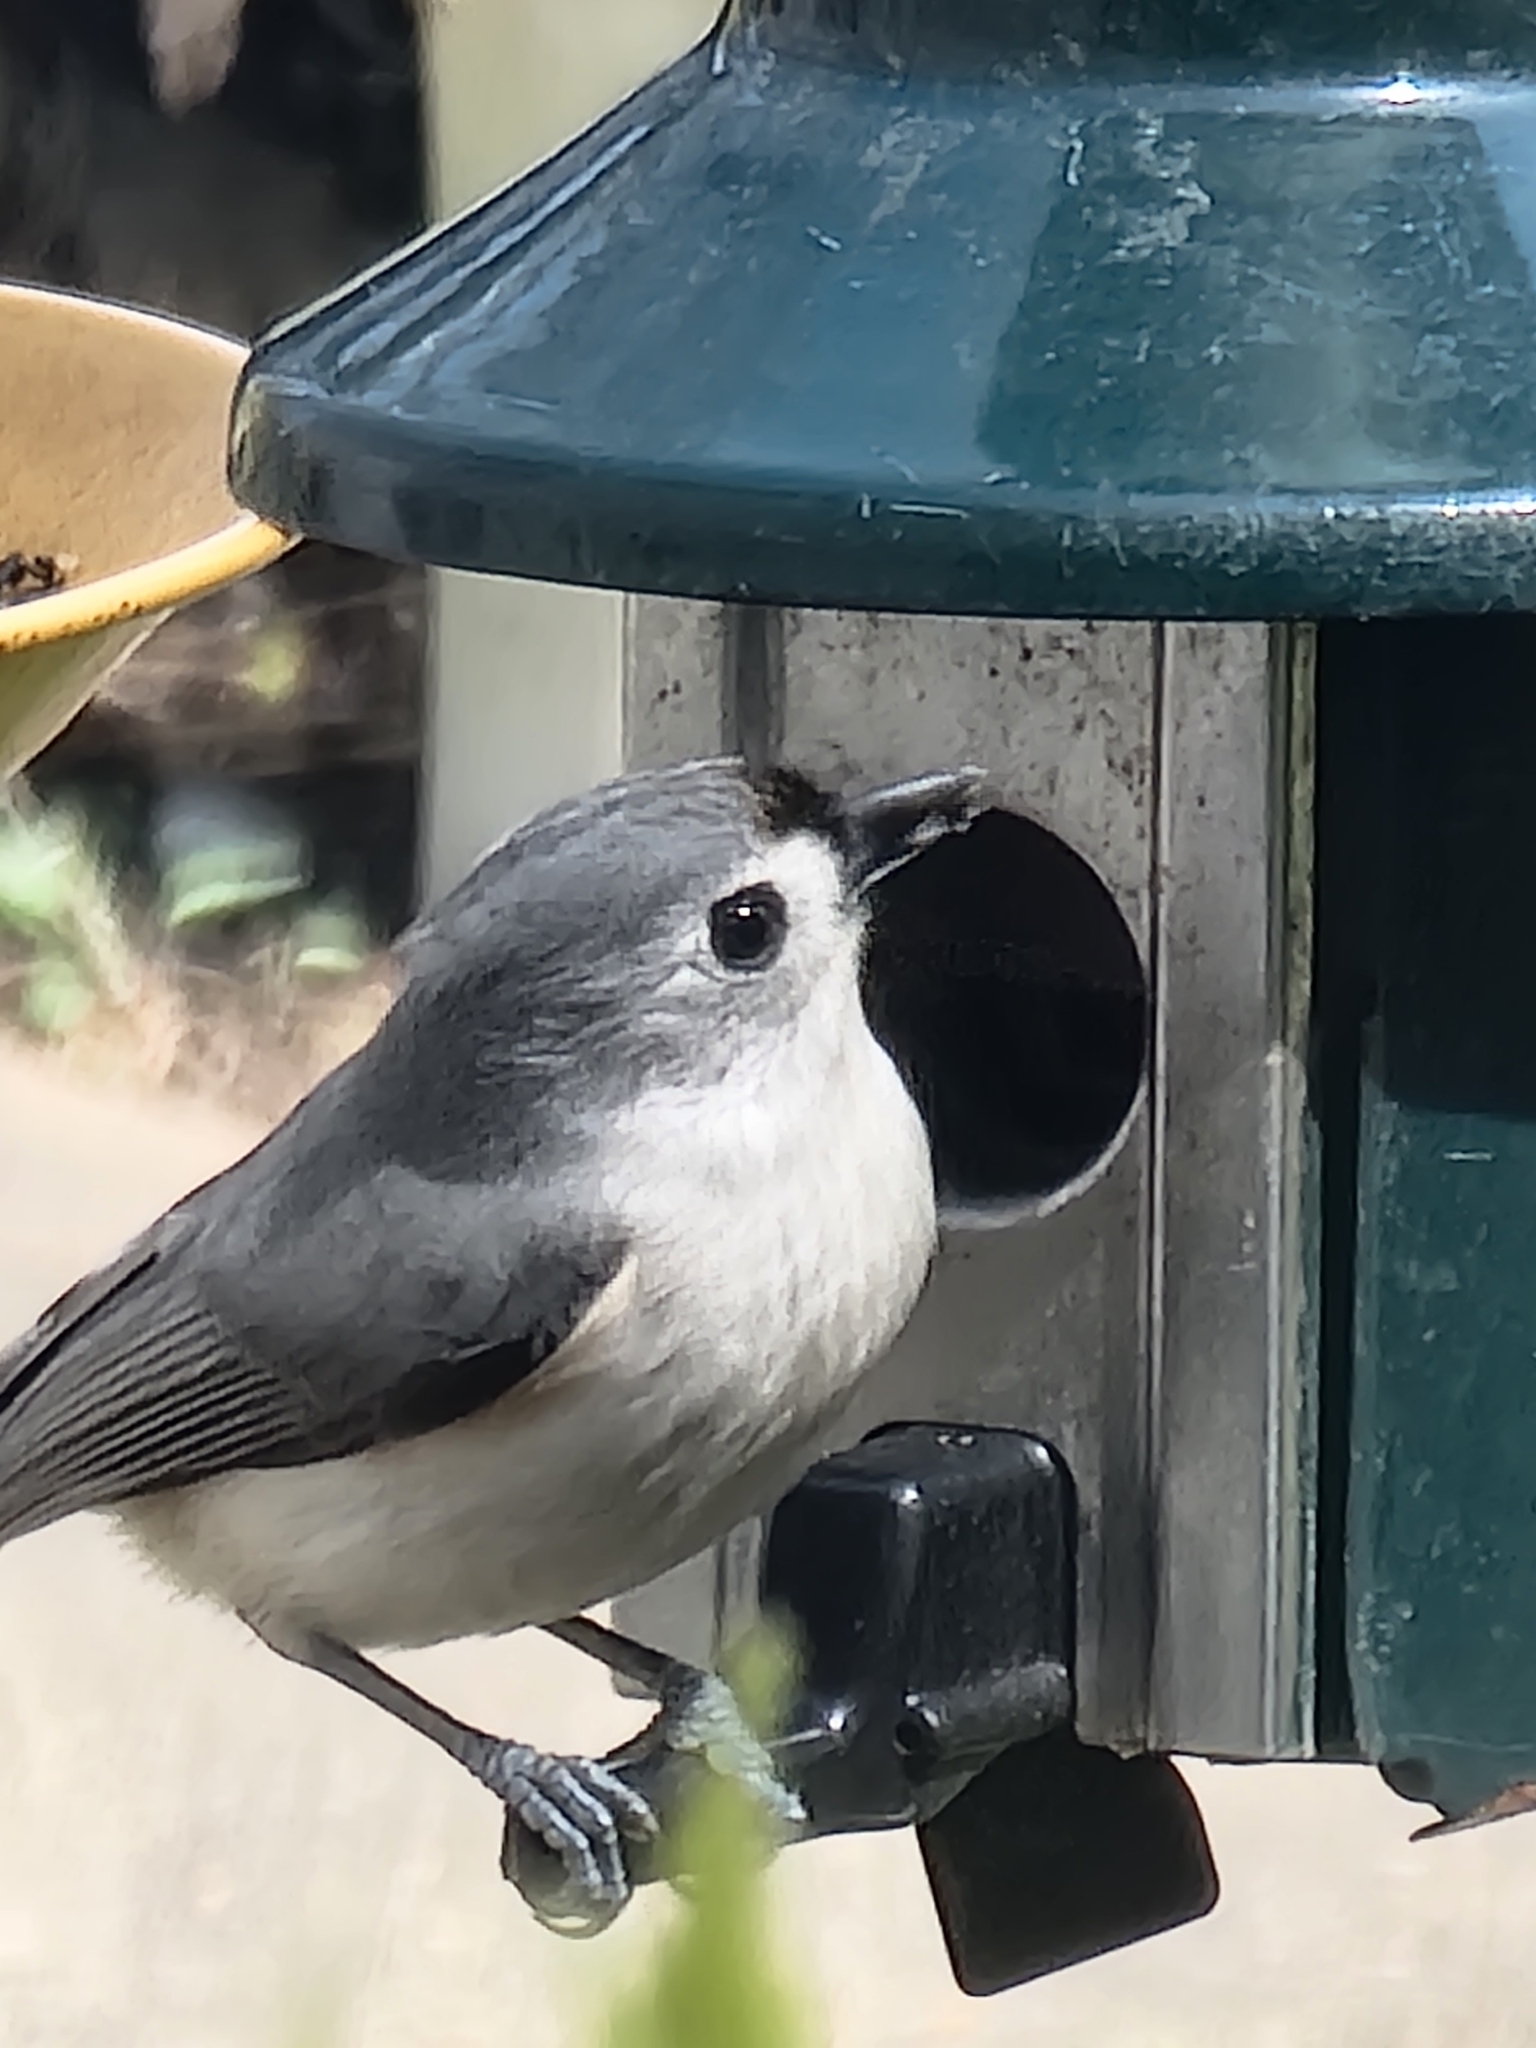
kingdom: Animalia
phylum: Chordata
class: Aves
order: Passeriformes
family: Paridae
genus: Baeolophus
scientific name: Baeolophus bicolor
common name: Tufted titmouse
